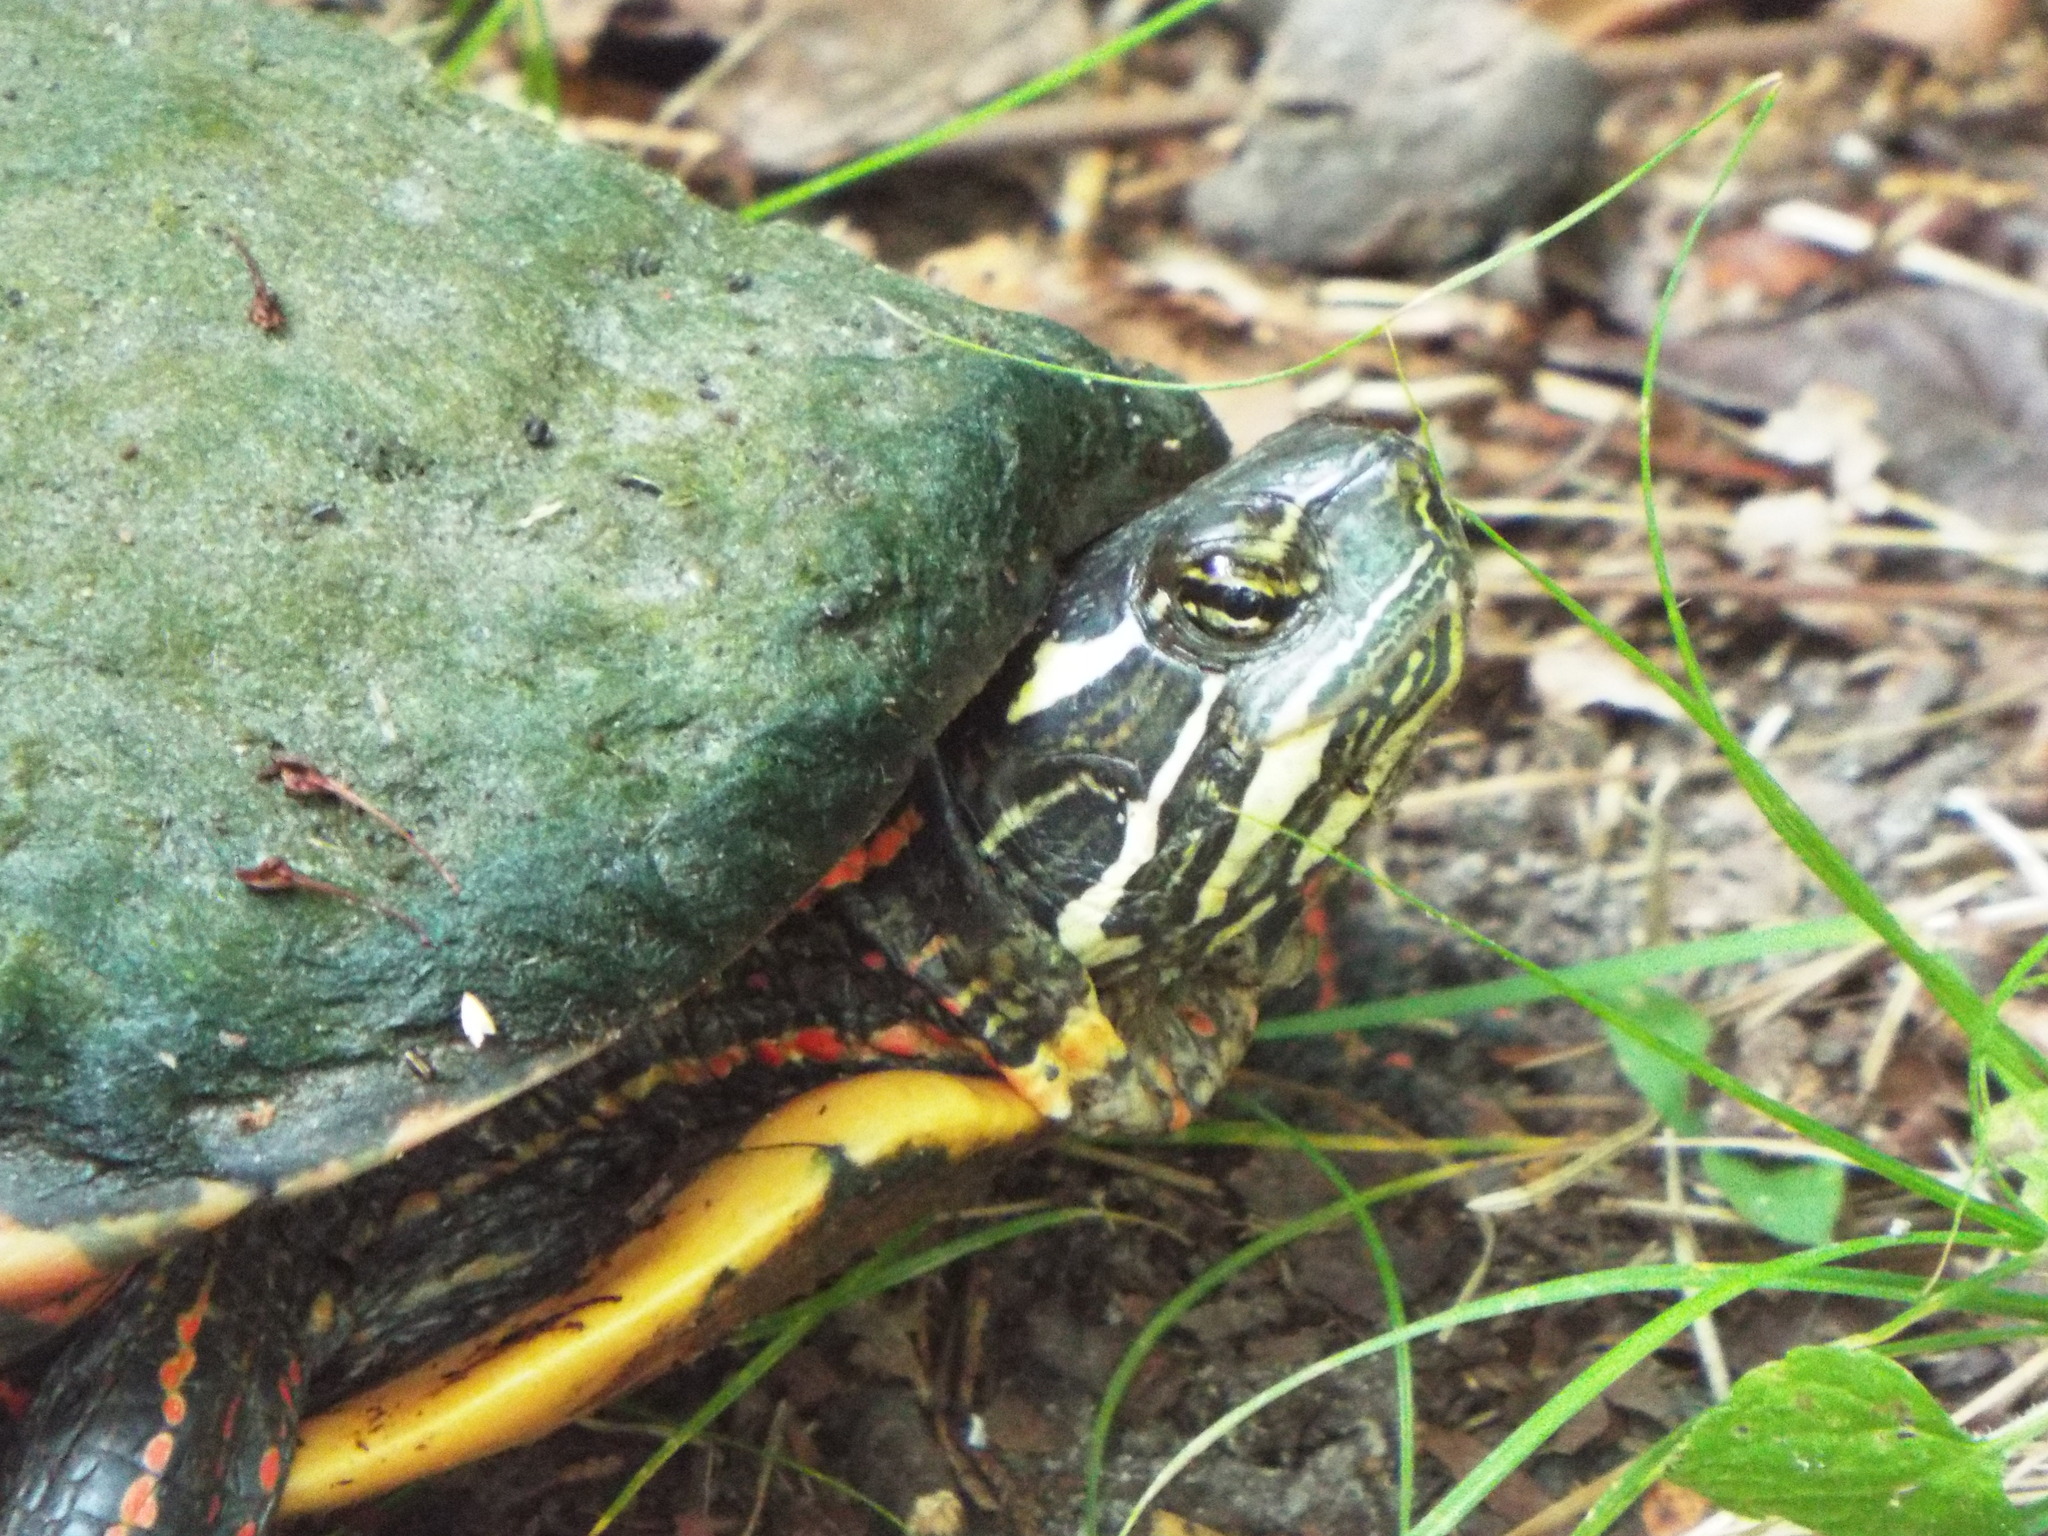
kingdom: Animalia
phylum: Chordata
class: Testudines
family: Emydidae
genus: Chrysemys
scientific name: Chrysemys picta
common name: Painted turtle
